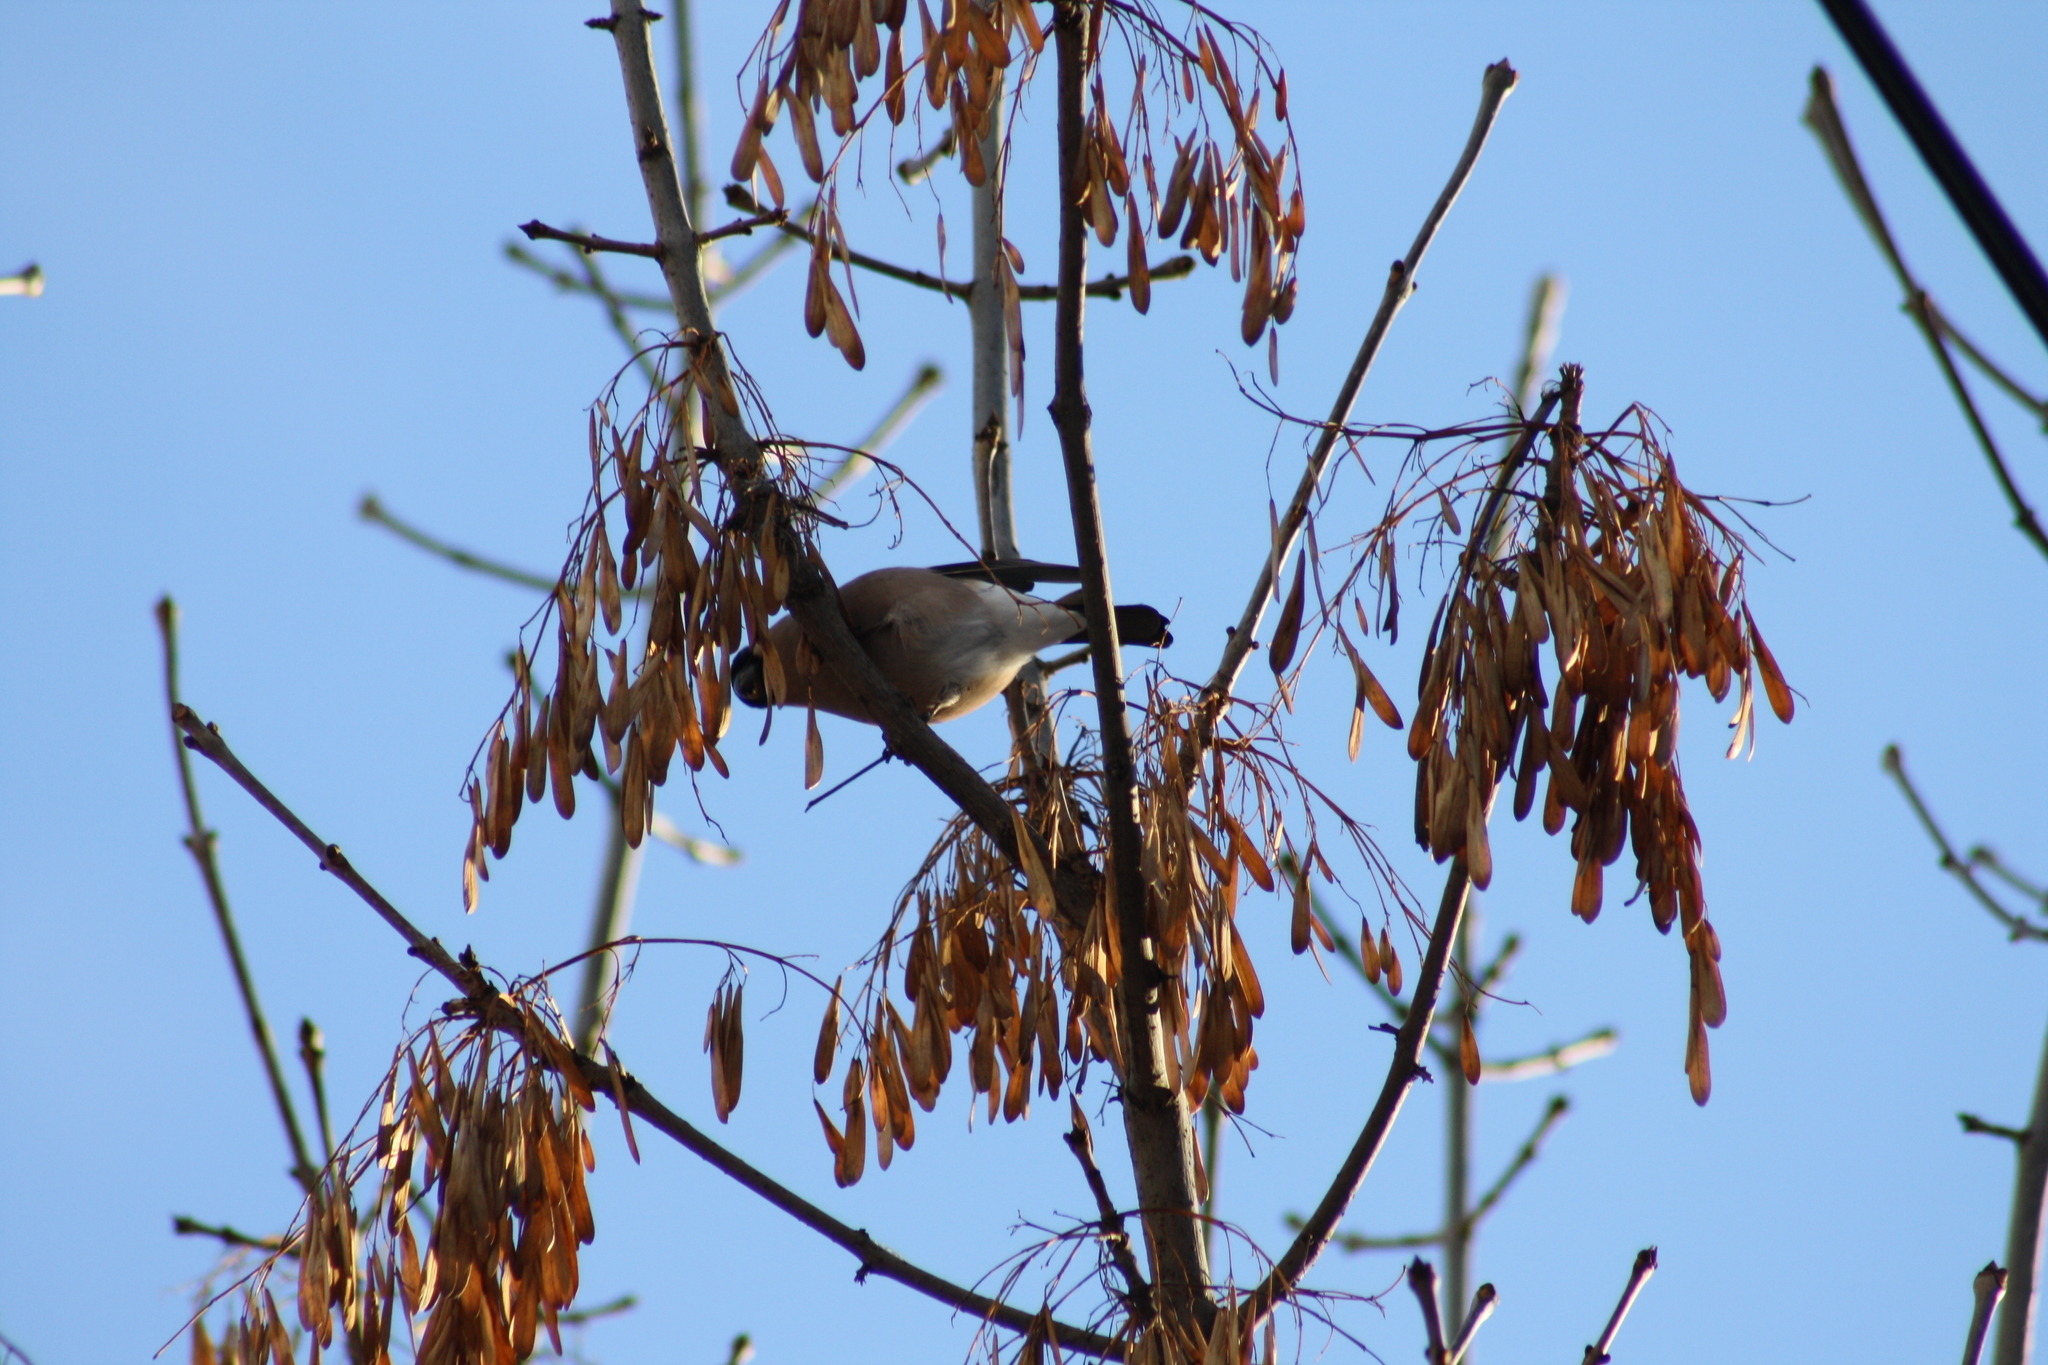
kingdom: Animalia
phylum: Chordata
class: Aves
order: Passeriformes
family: Fringillidae
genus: Pyrrhula
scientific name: Pyrrhula pyrrhula
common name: Eurasian bullfinch
